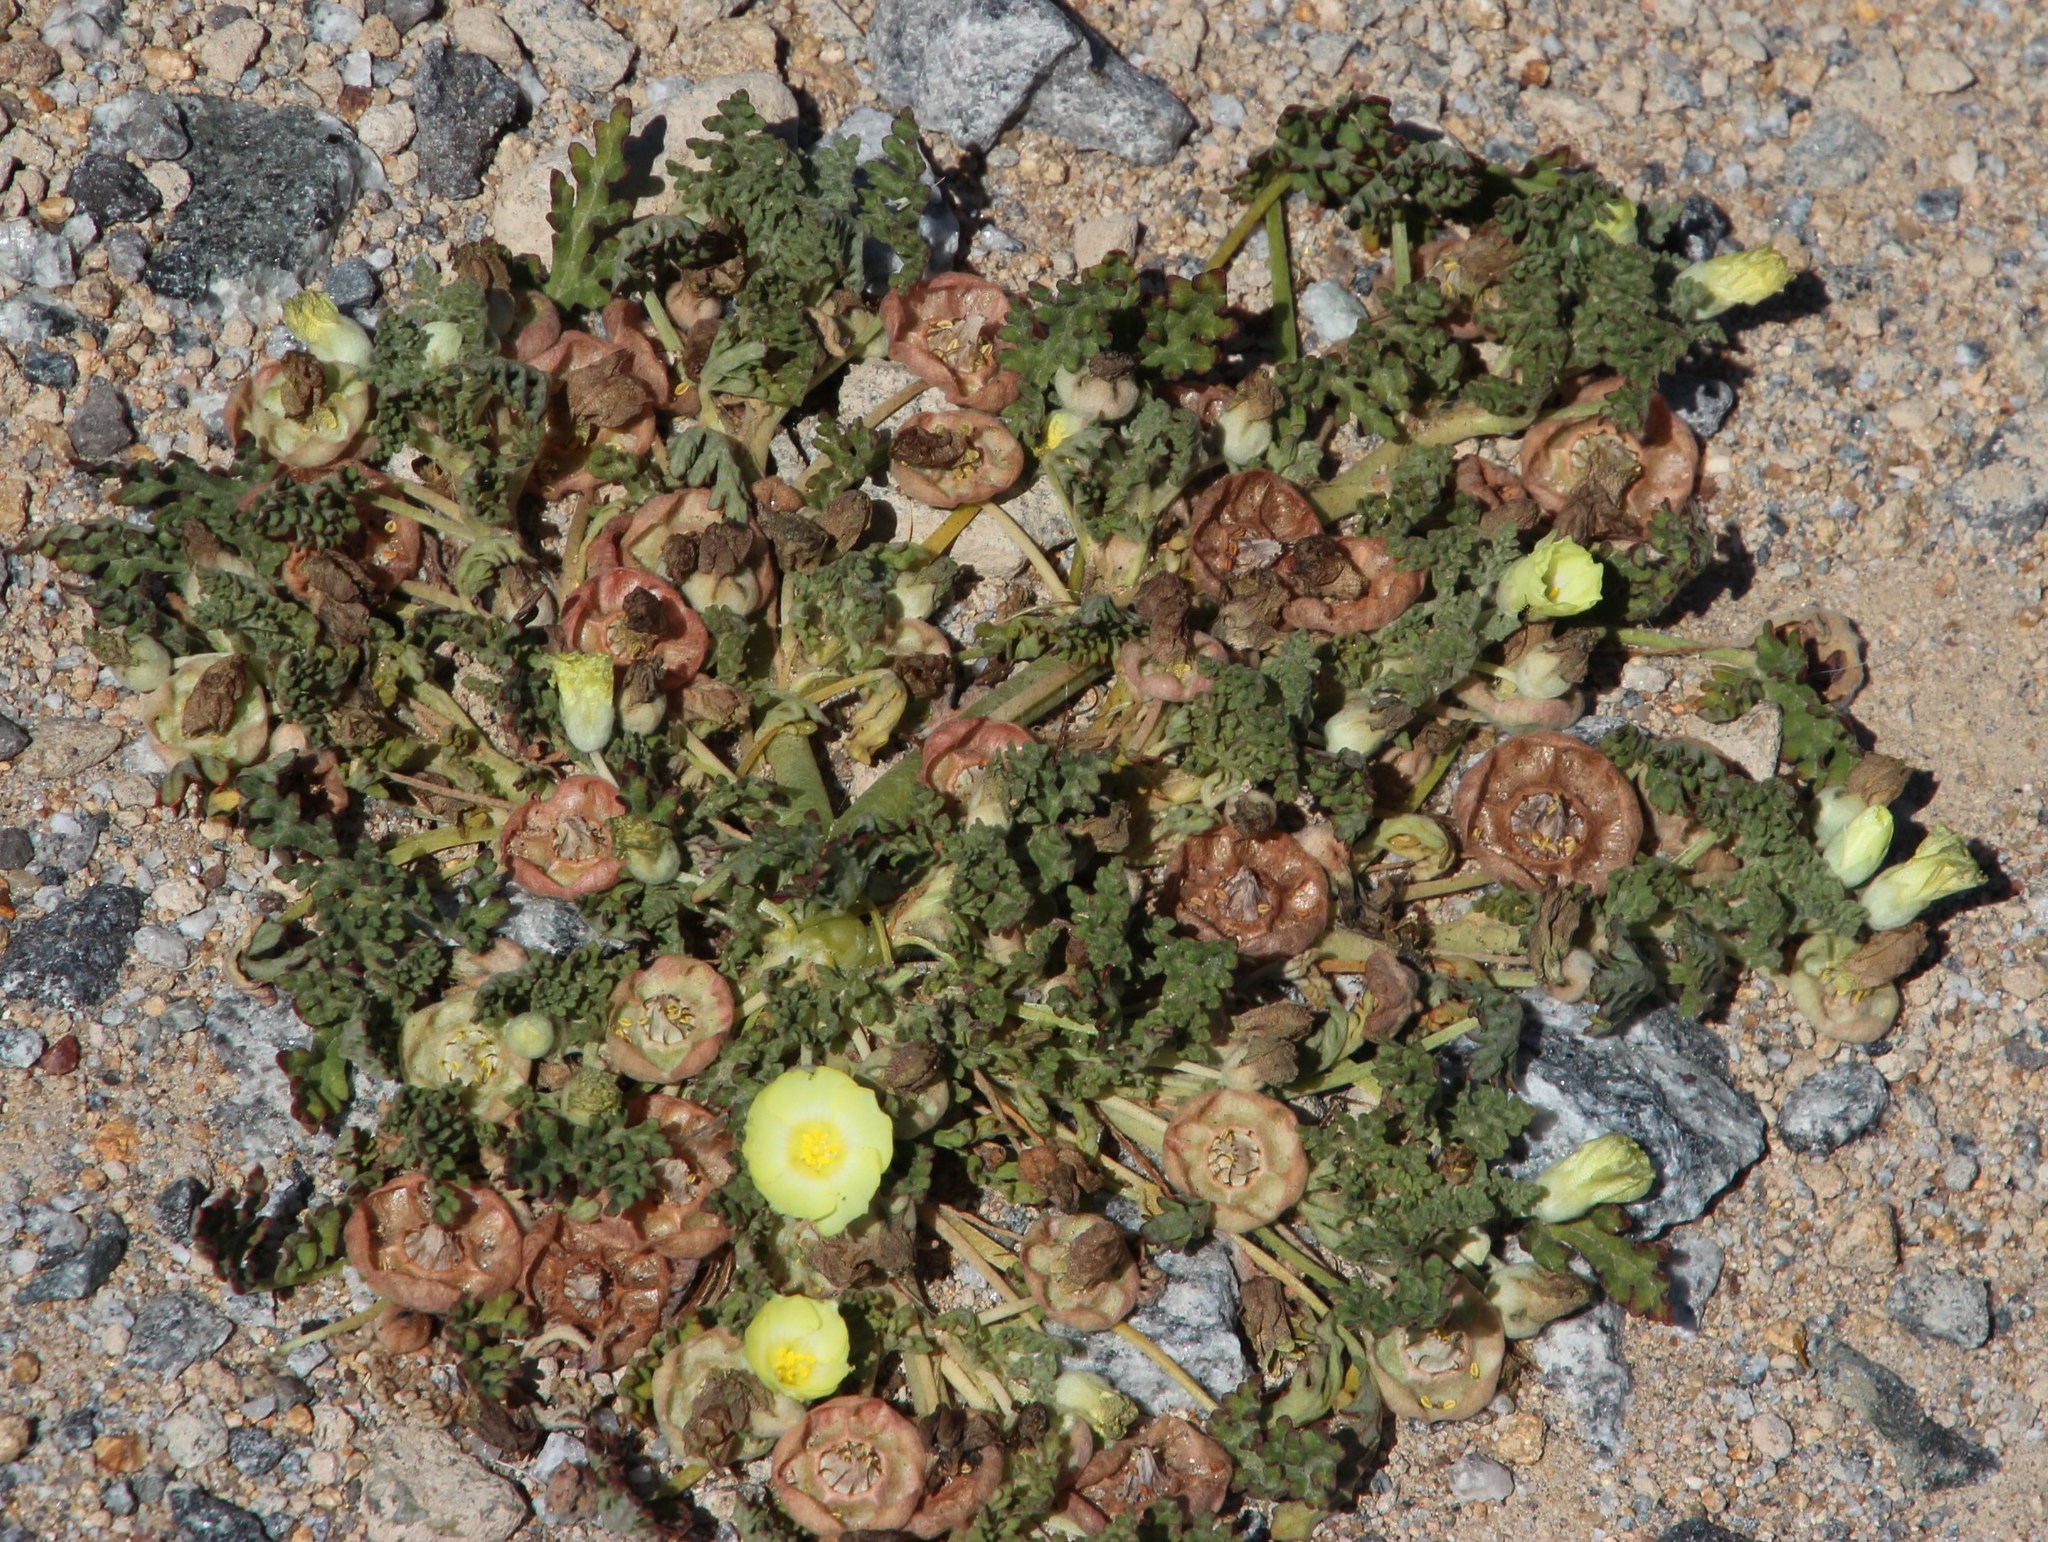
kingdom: Plantae
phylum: Tracheophyta
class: Magnoliopsida
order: Malvales
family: Neuradaceae
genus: Grielum
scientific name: Grielum humifusum
